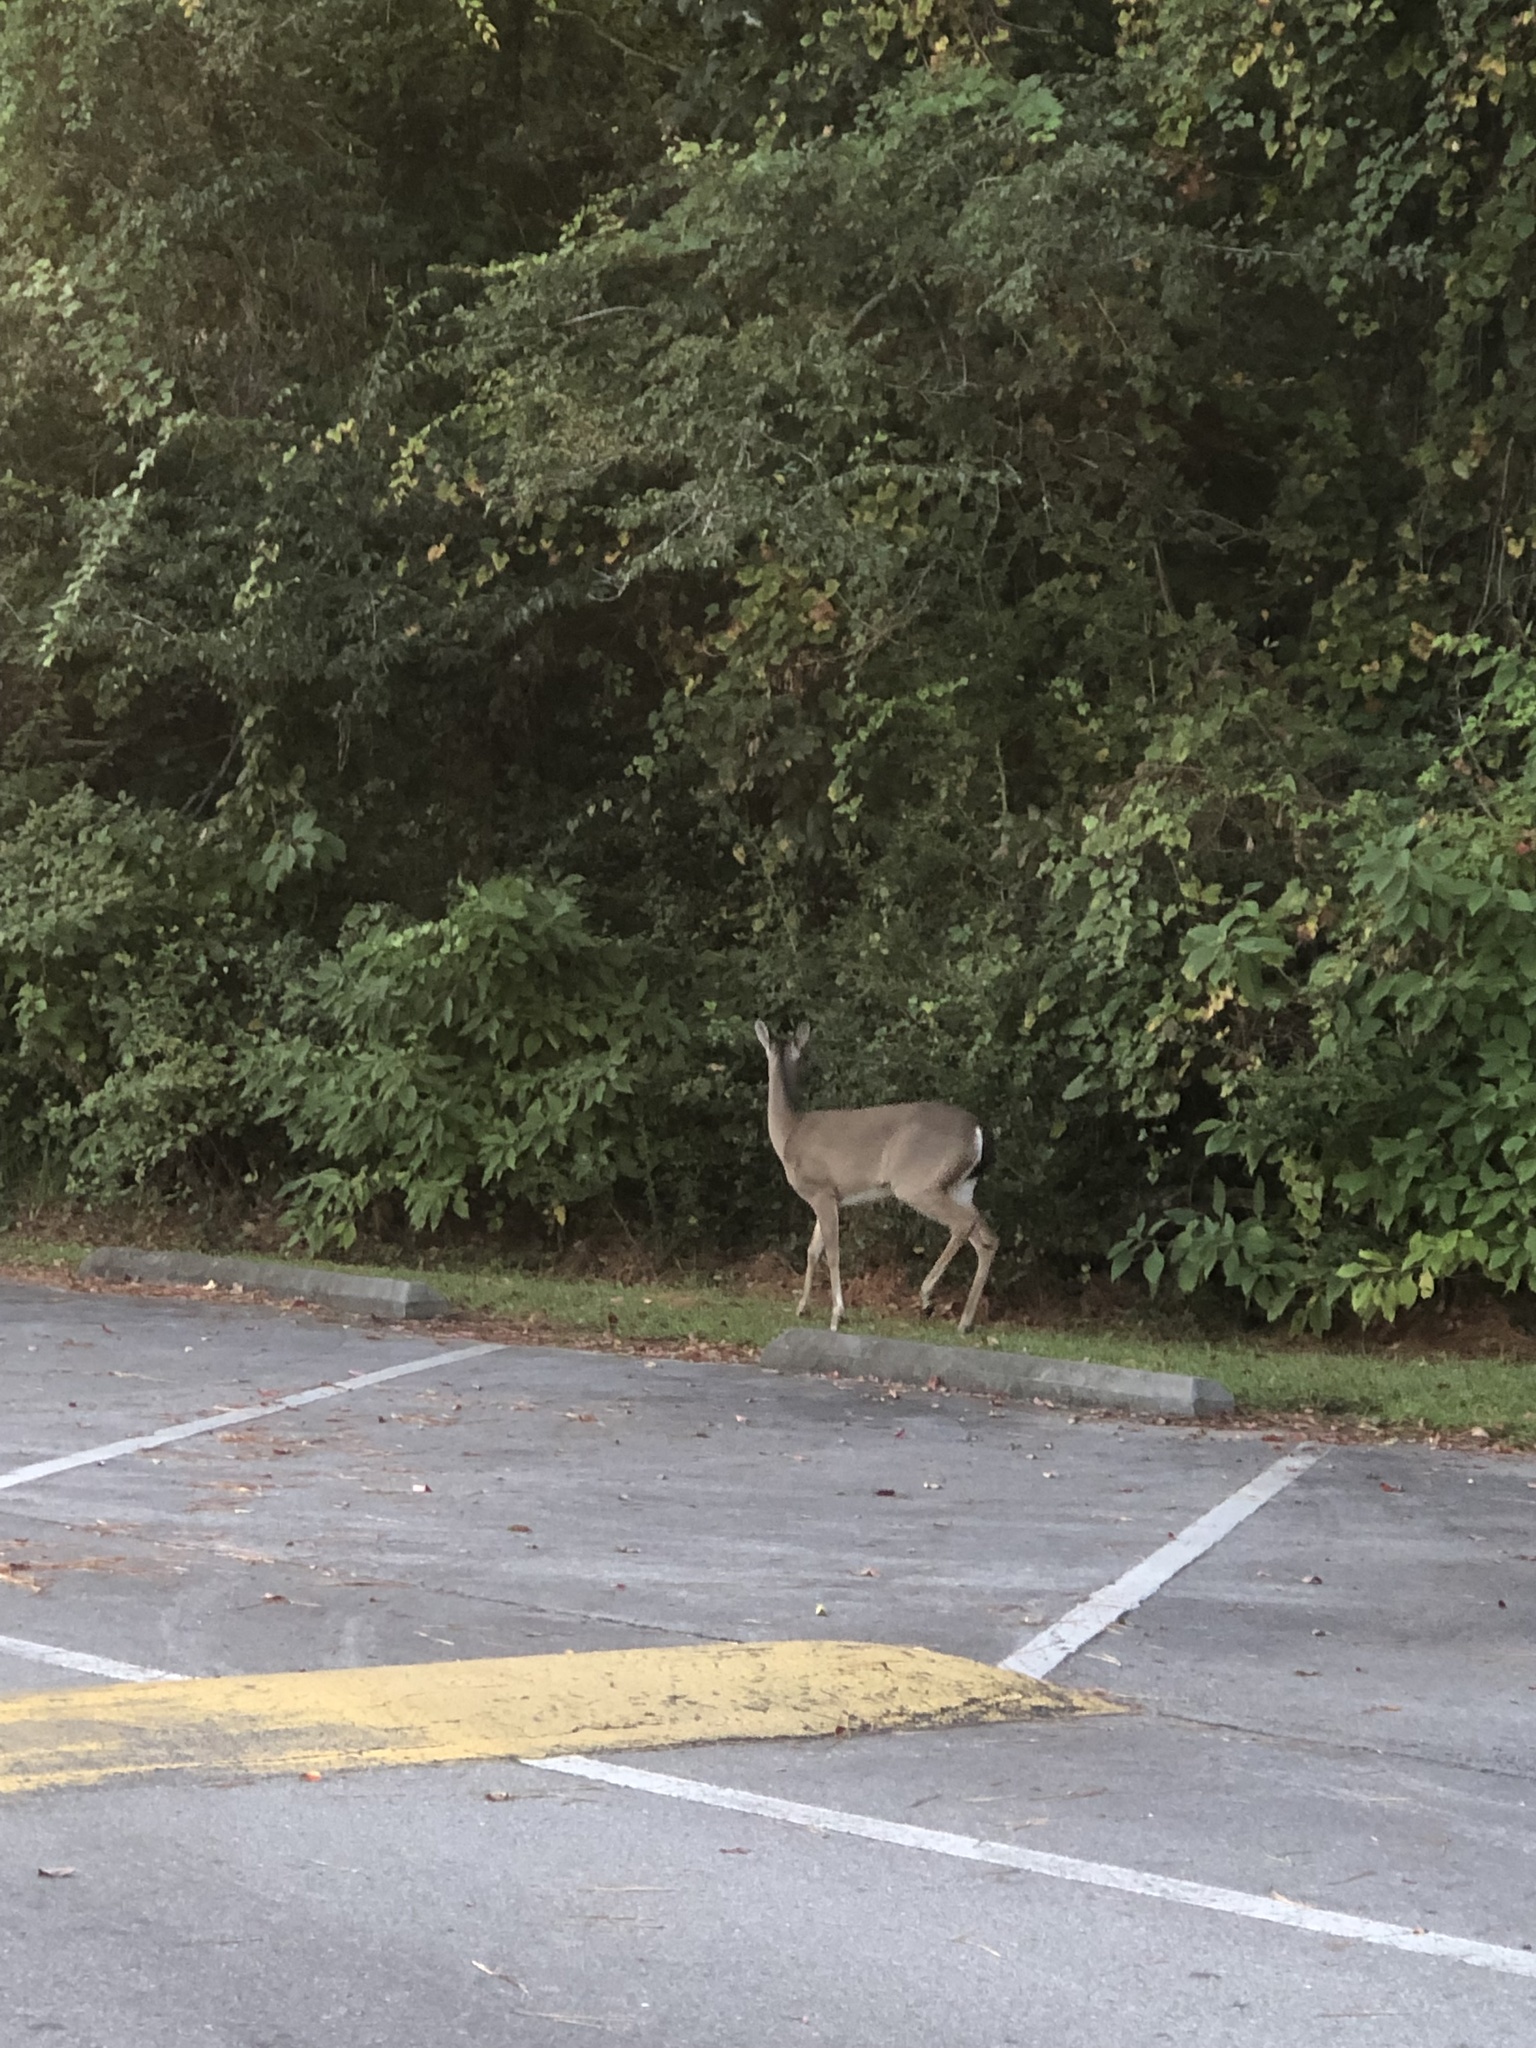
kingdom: Animalia
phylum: Chordata
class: Mammalia
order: Artiodactyla
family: Cervidae
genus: Odocoileus
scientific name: Odocoileus virginianus
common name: White-tailed deer
